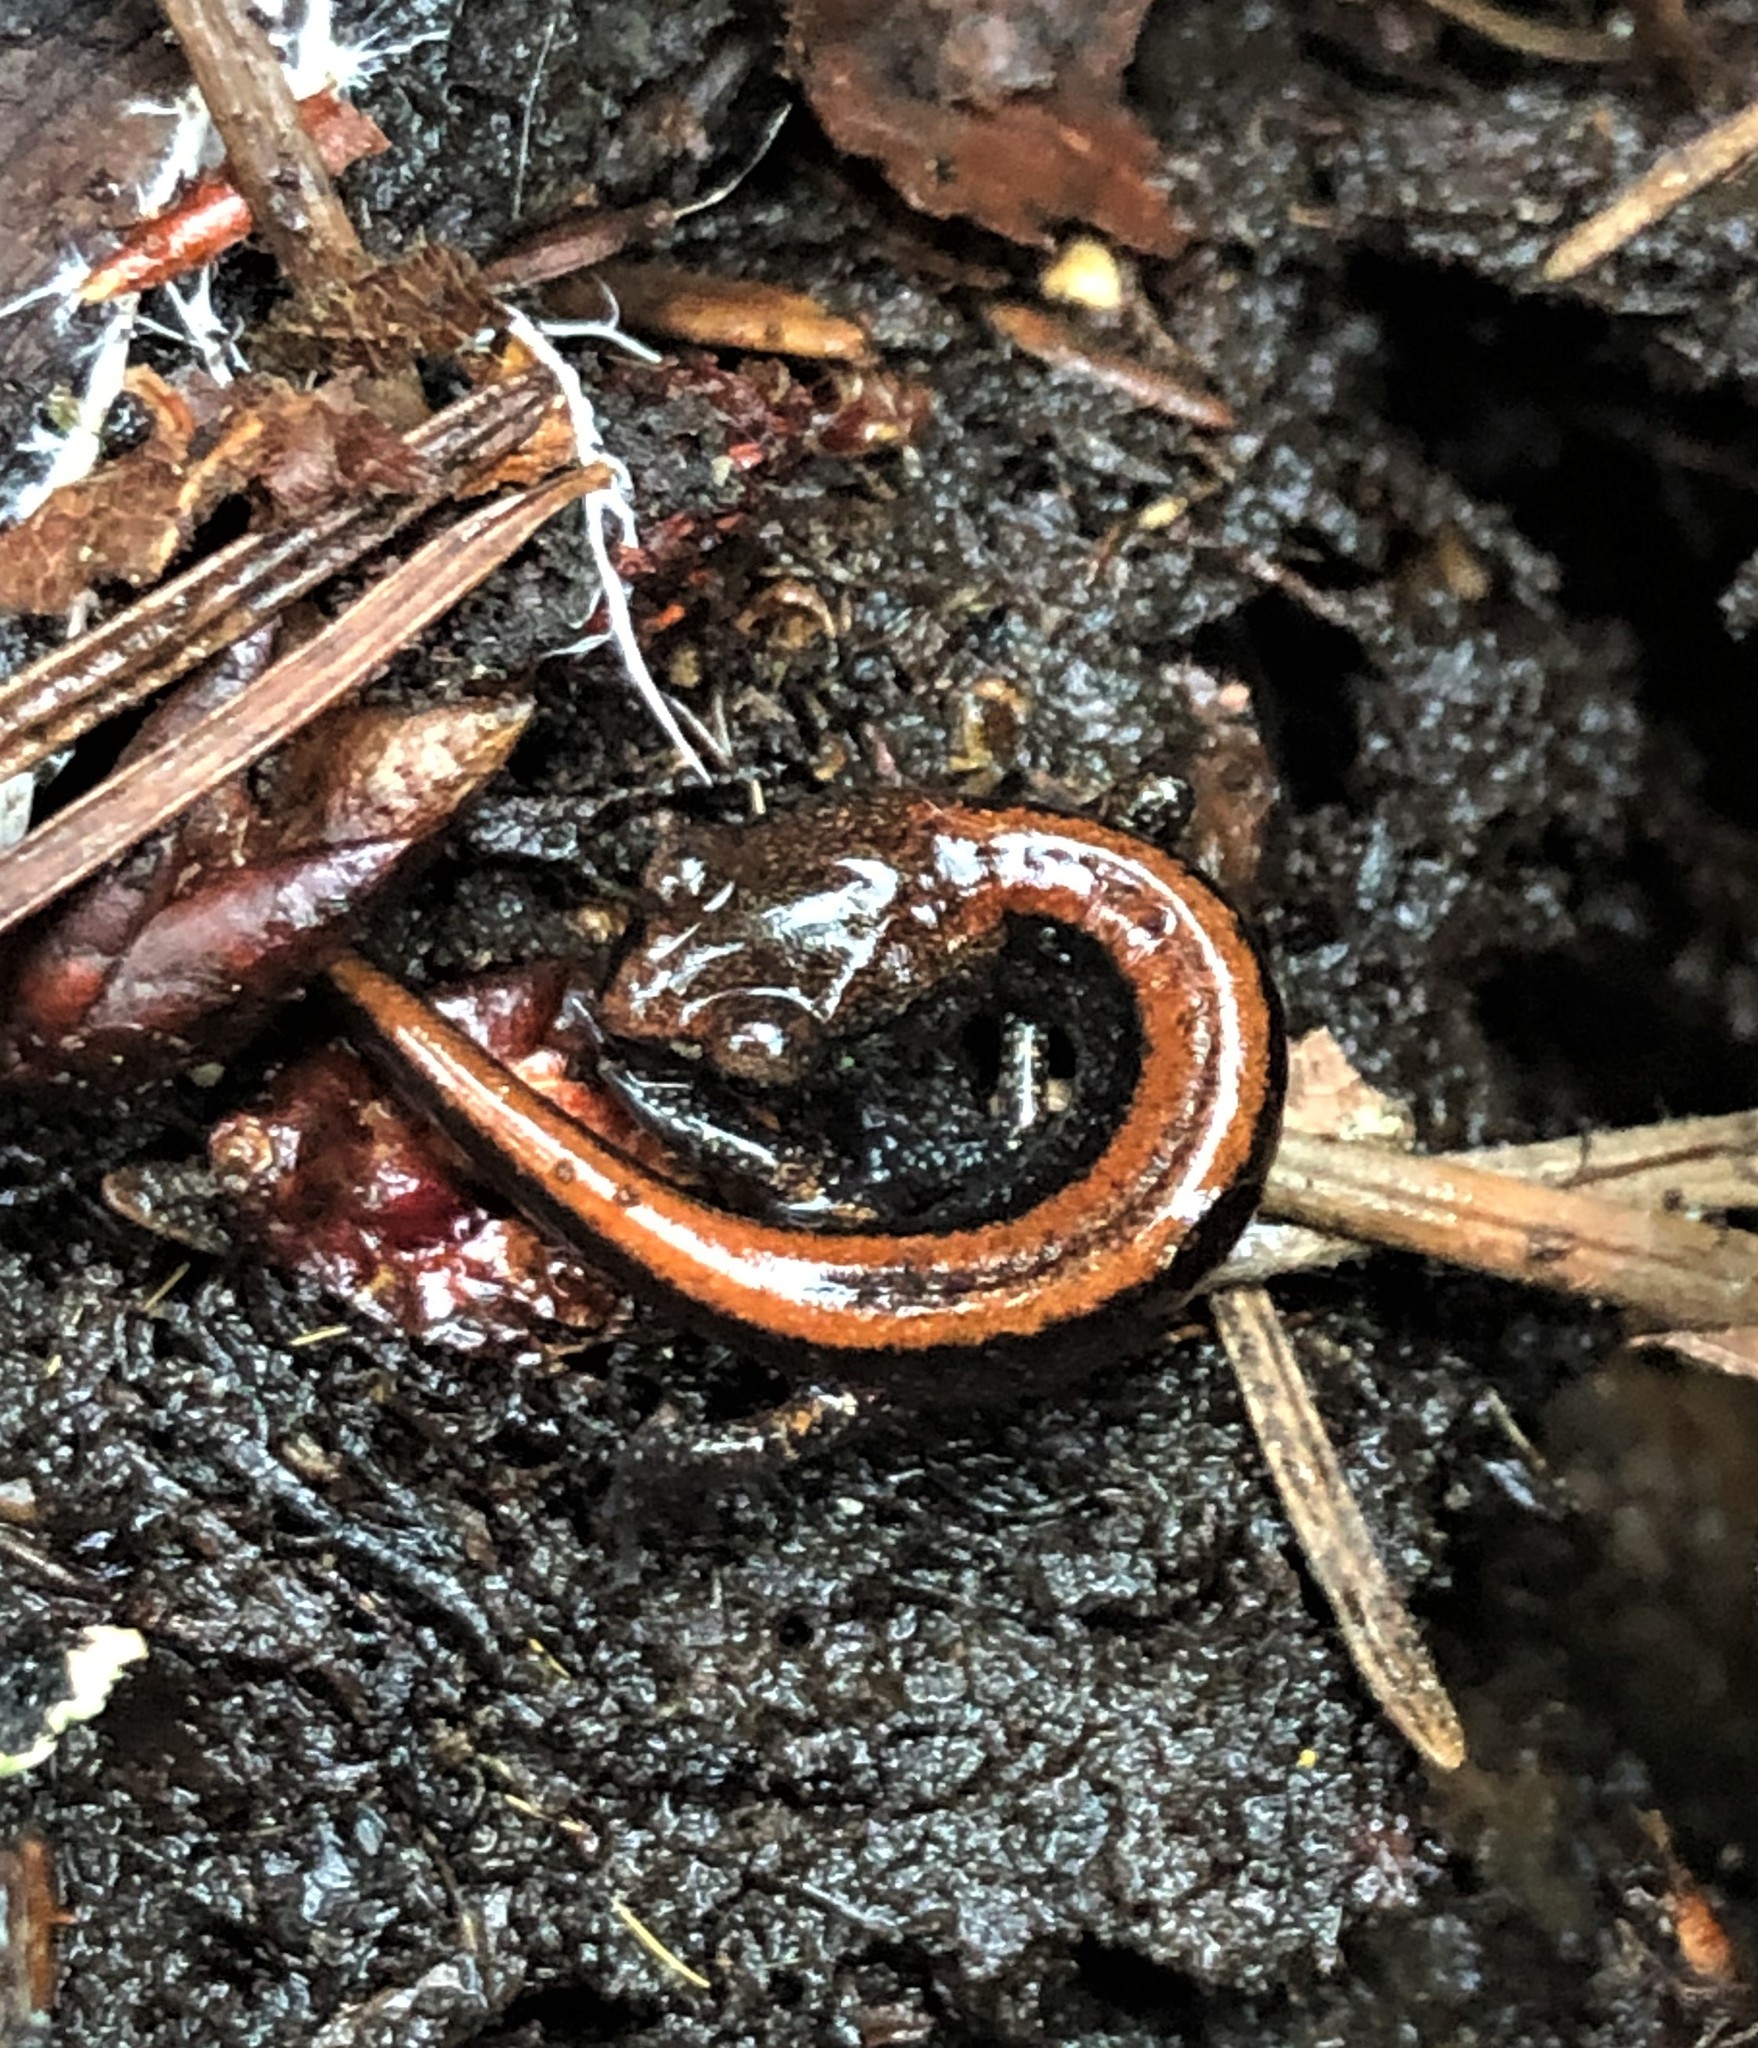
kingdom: Animalia
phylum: Chordata
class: Amphibia
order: Caudata
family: Plethodontidae
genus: Plethodon
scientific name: Plethodon larselli
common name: Larch mountain salamander
